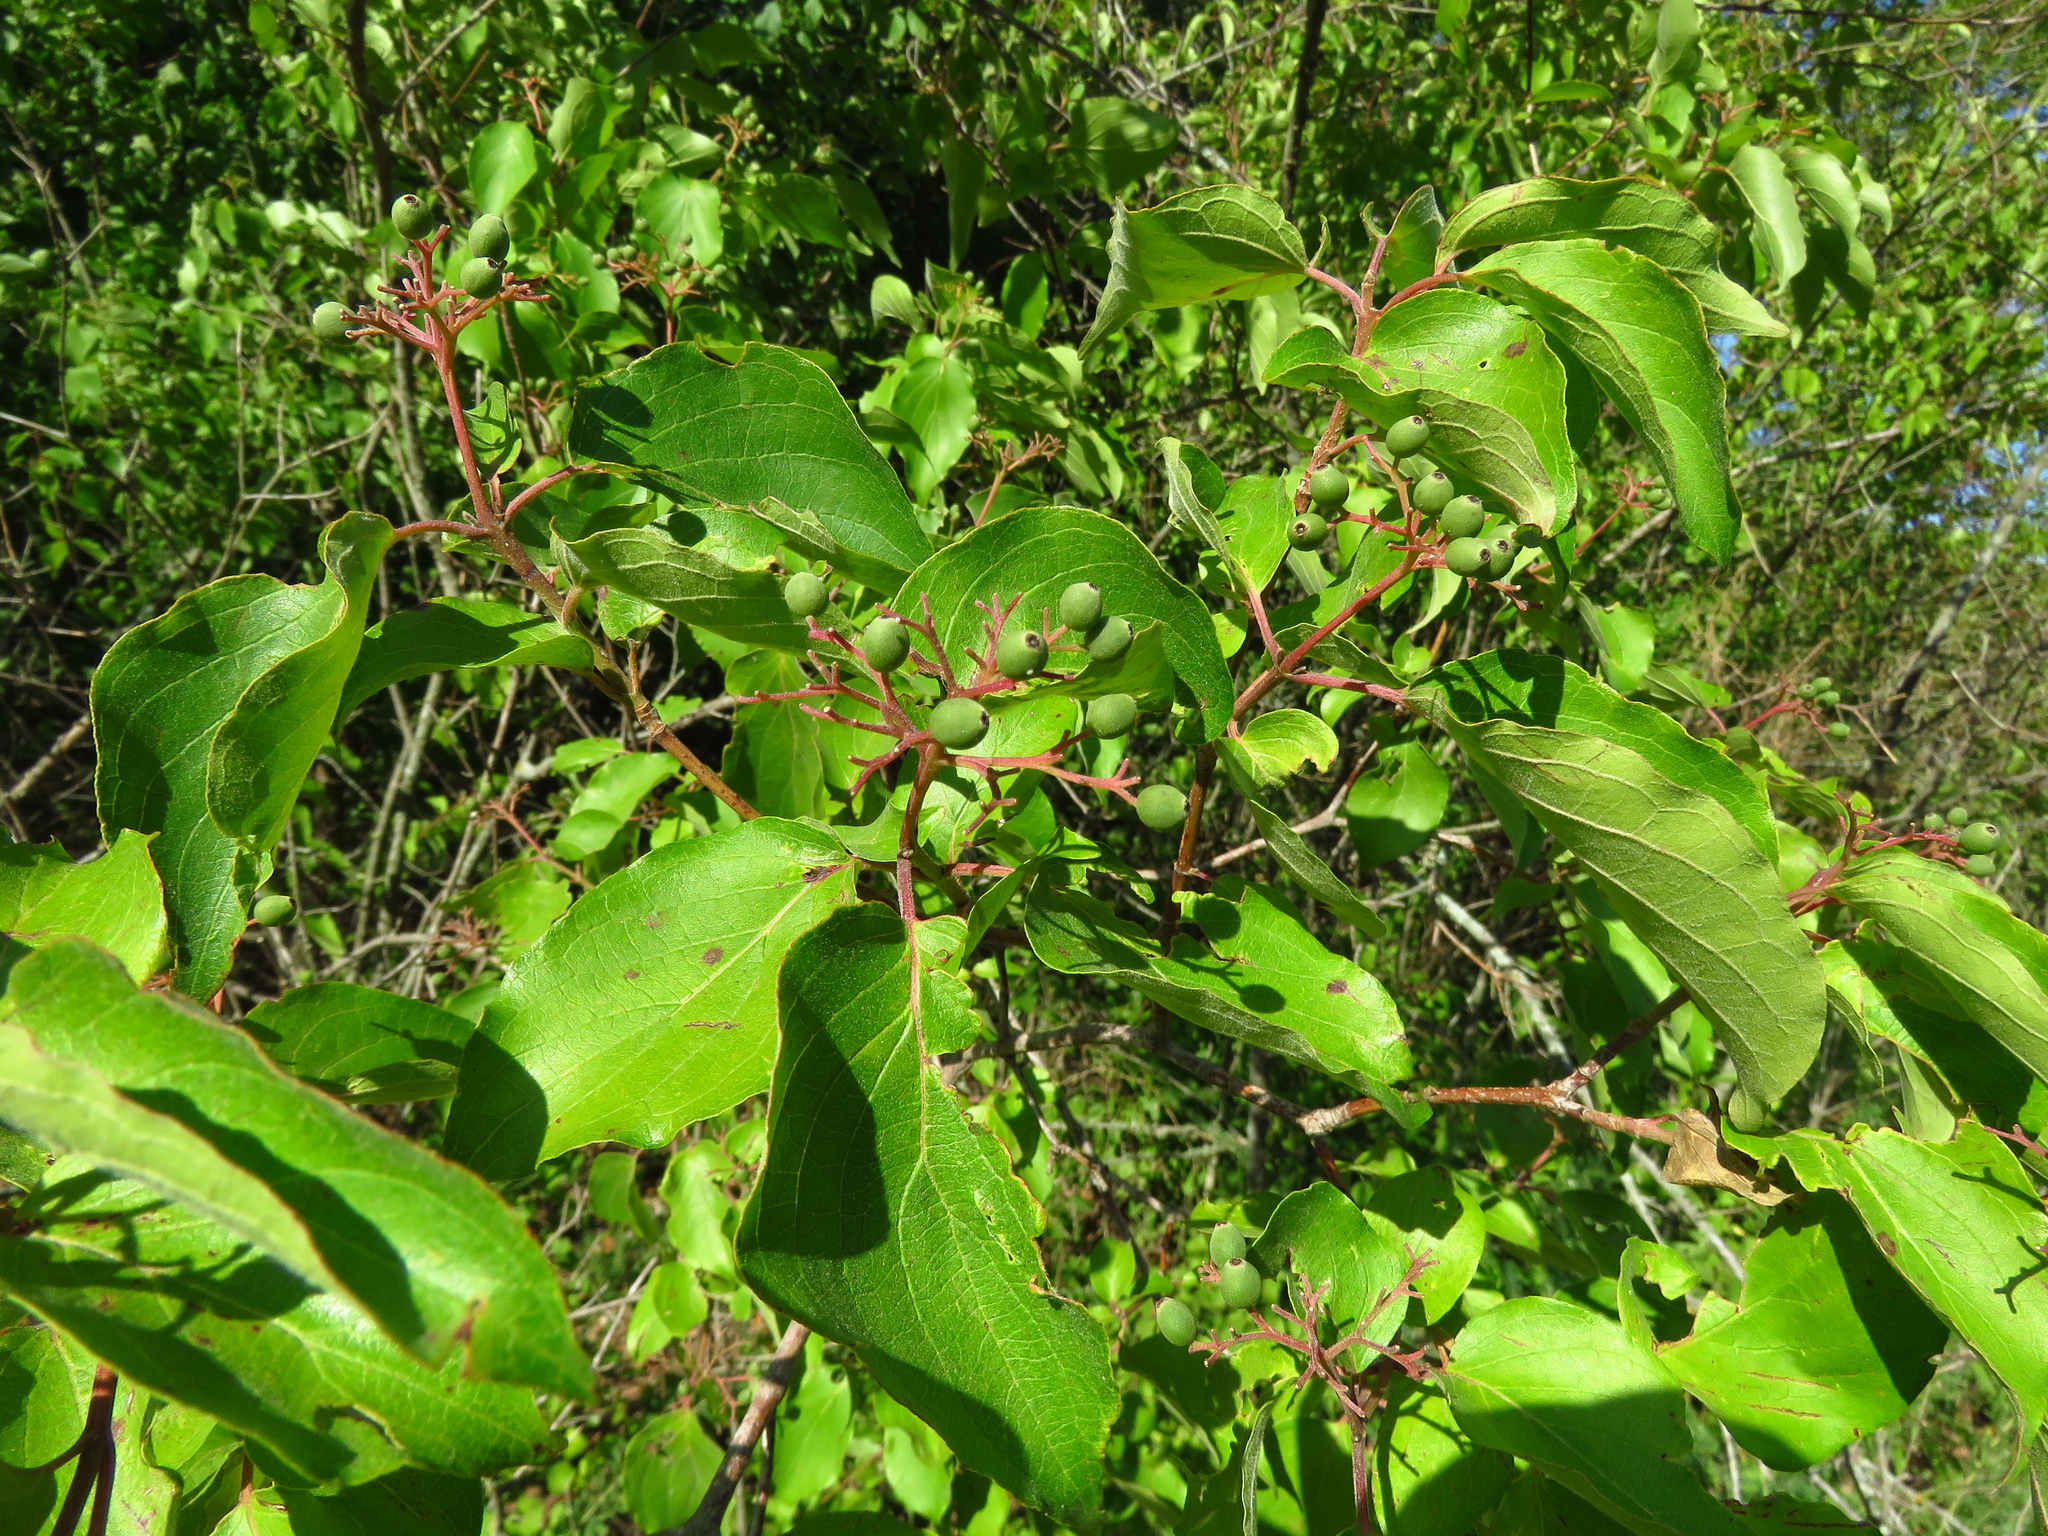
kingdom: Plantae
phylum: Tracheophyta
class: Magnoliopsida
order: Cornales
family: Cornaceae
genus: Cornus
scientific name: Cornus drummondii
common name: Rough-leaf dogwood
